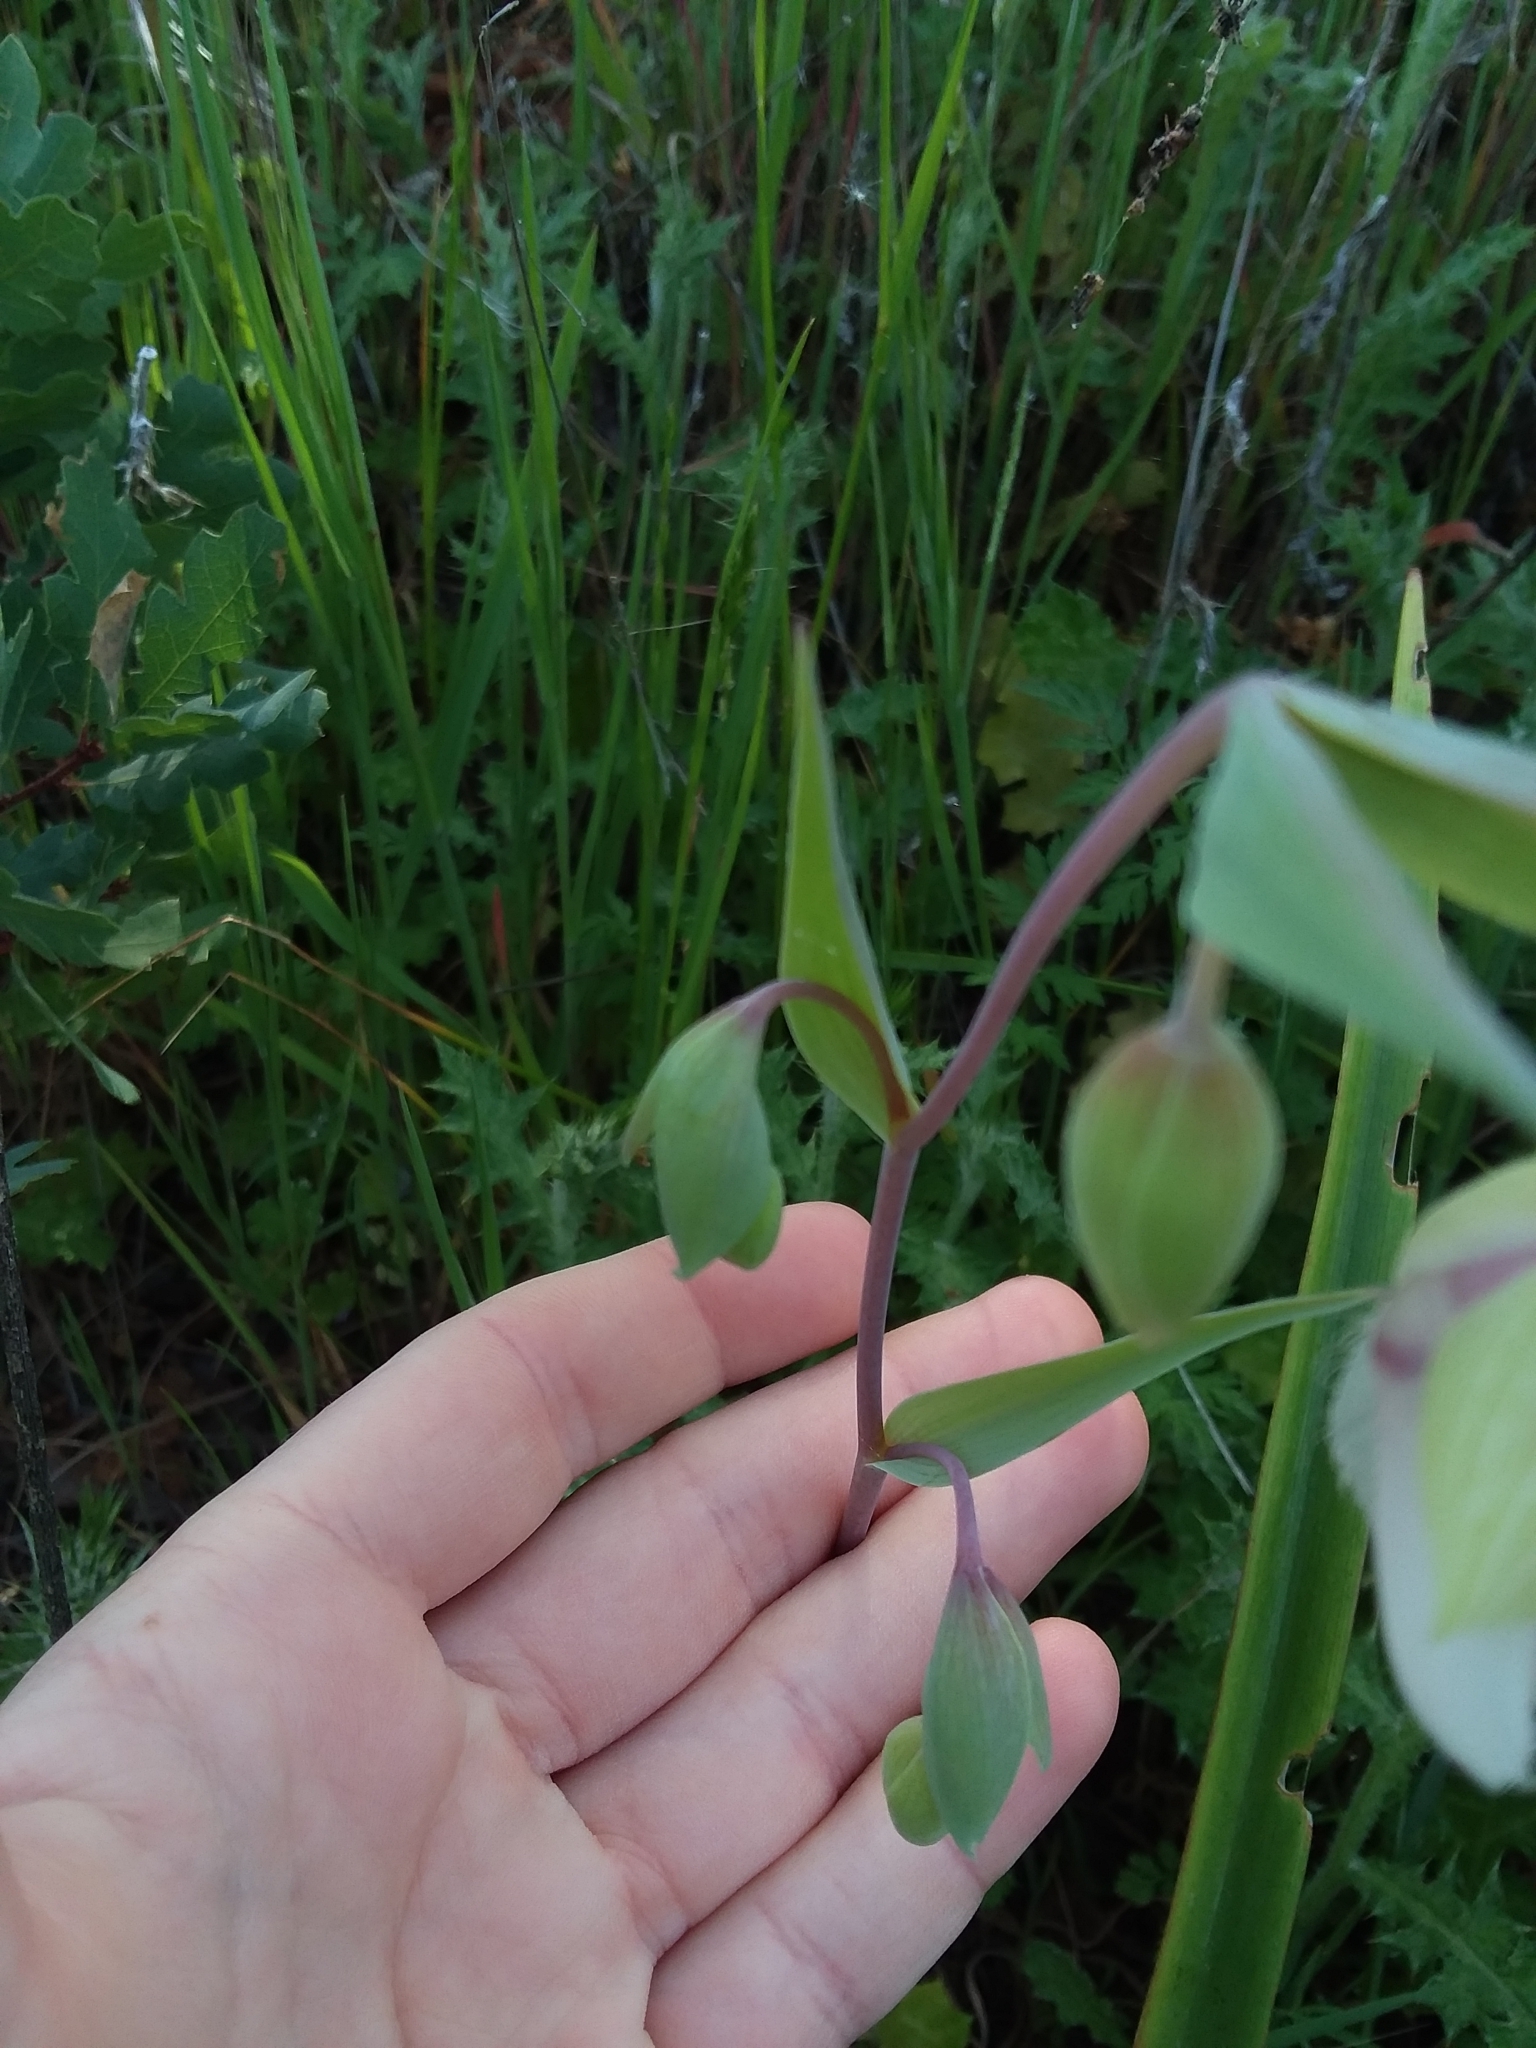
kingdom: Plantae
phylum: Tracheophyta
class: Liliopsida
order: Liliales
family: Liliaceae
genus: Calochortus
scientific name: Calochortus albus
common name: Fairy-lantern
